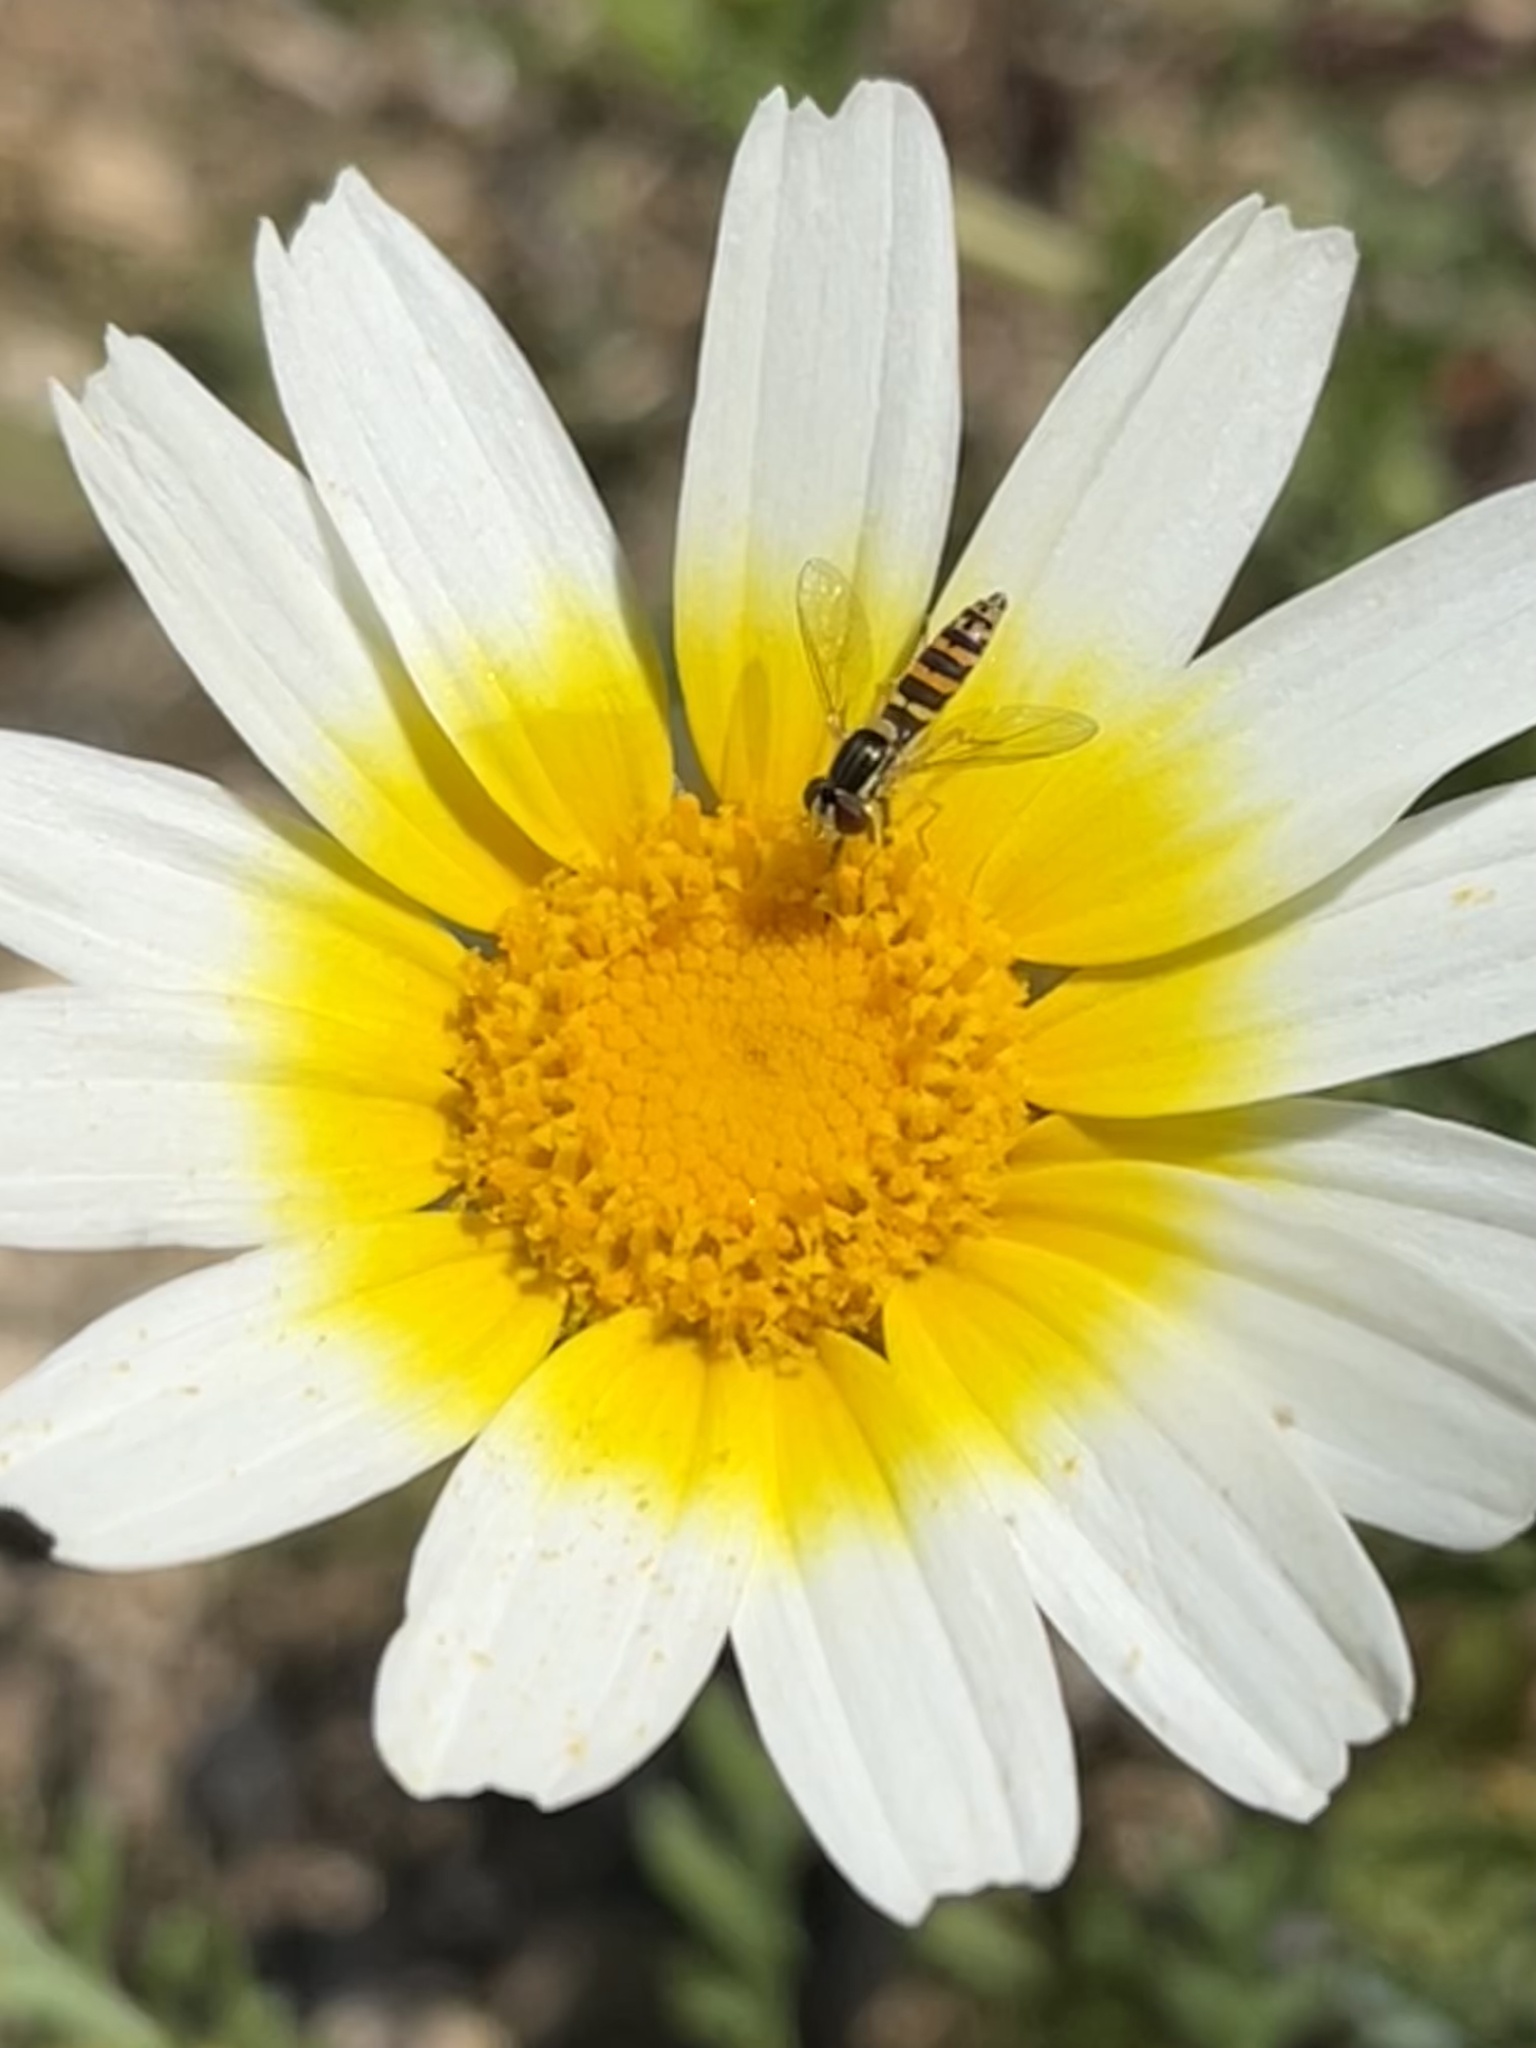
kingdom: Animalia
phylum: Arthropoda
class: Insecta
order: Diptera
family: Syrphidae
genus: Sphaerophoria
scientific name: Sphaerophoria
